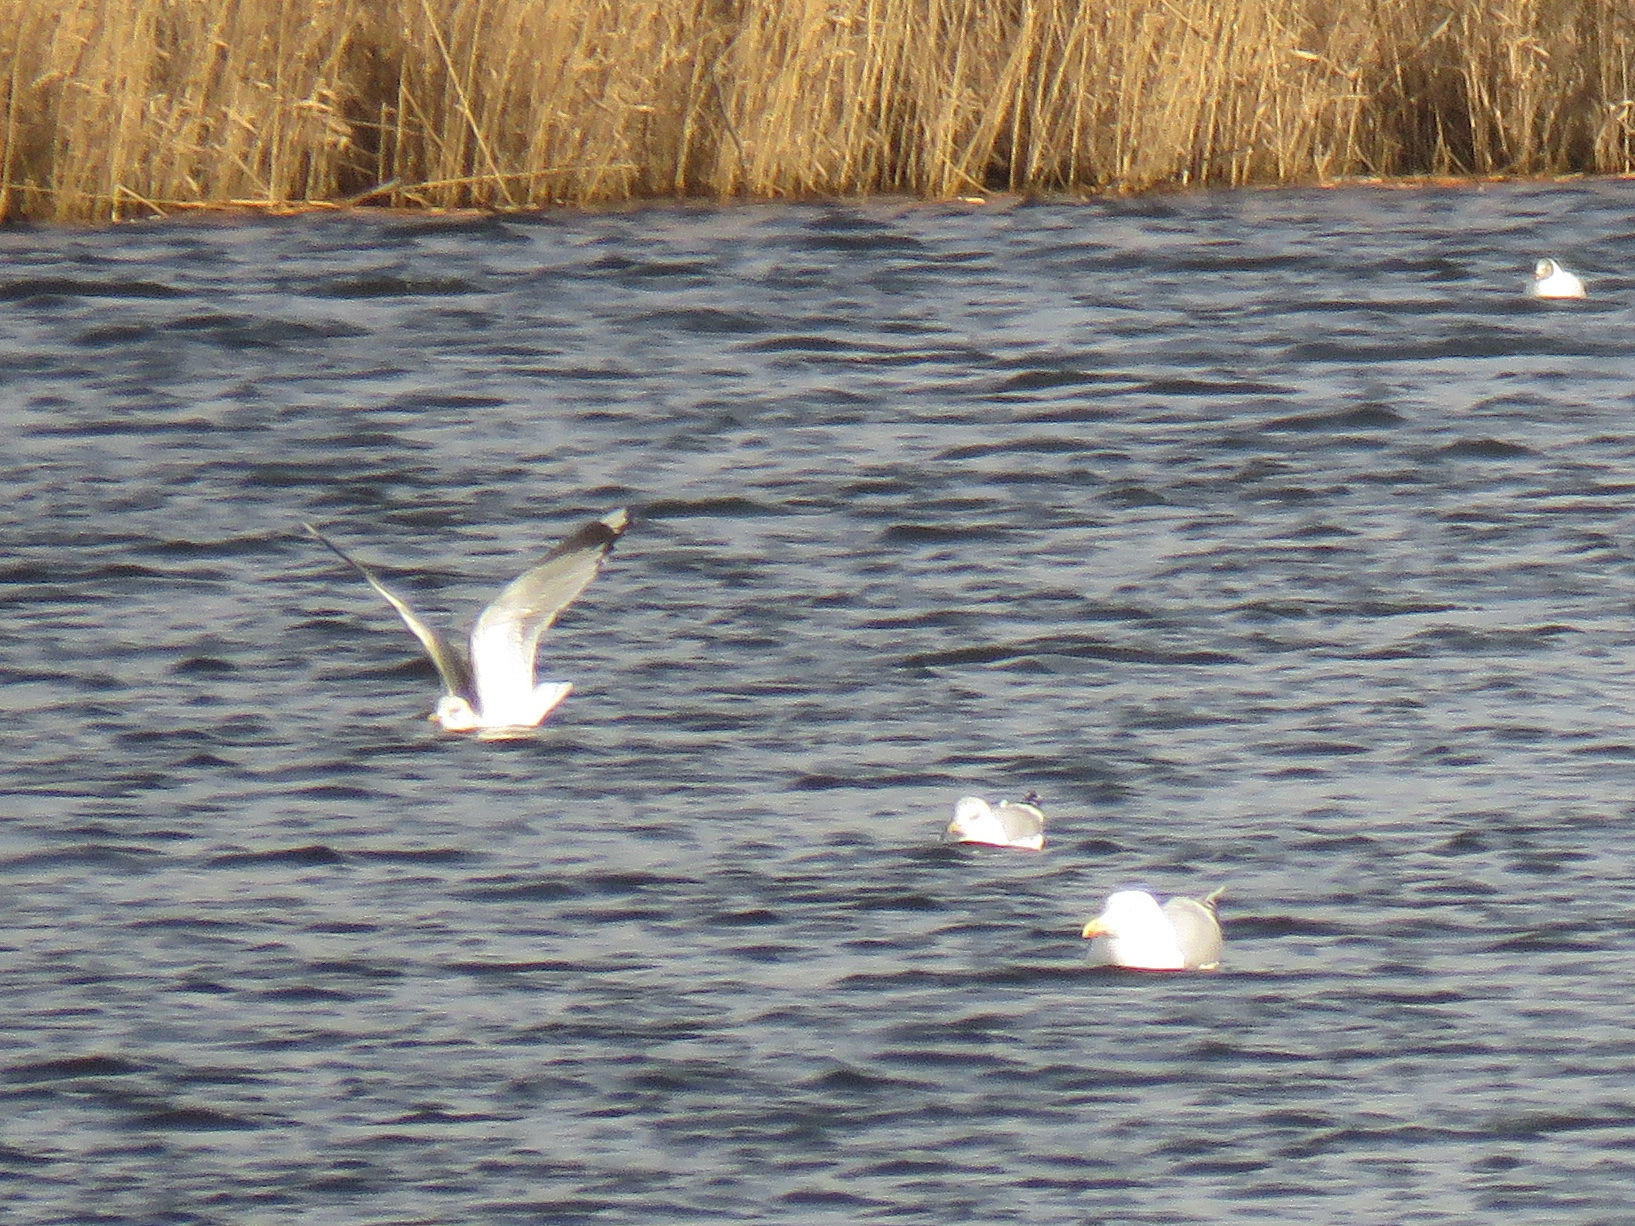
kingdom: Animalia
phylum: Chordata
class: Aves
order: Charadriiformes
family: Laridae
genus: Larus
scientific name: Larus canus
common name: Mew gull
